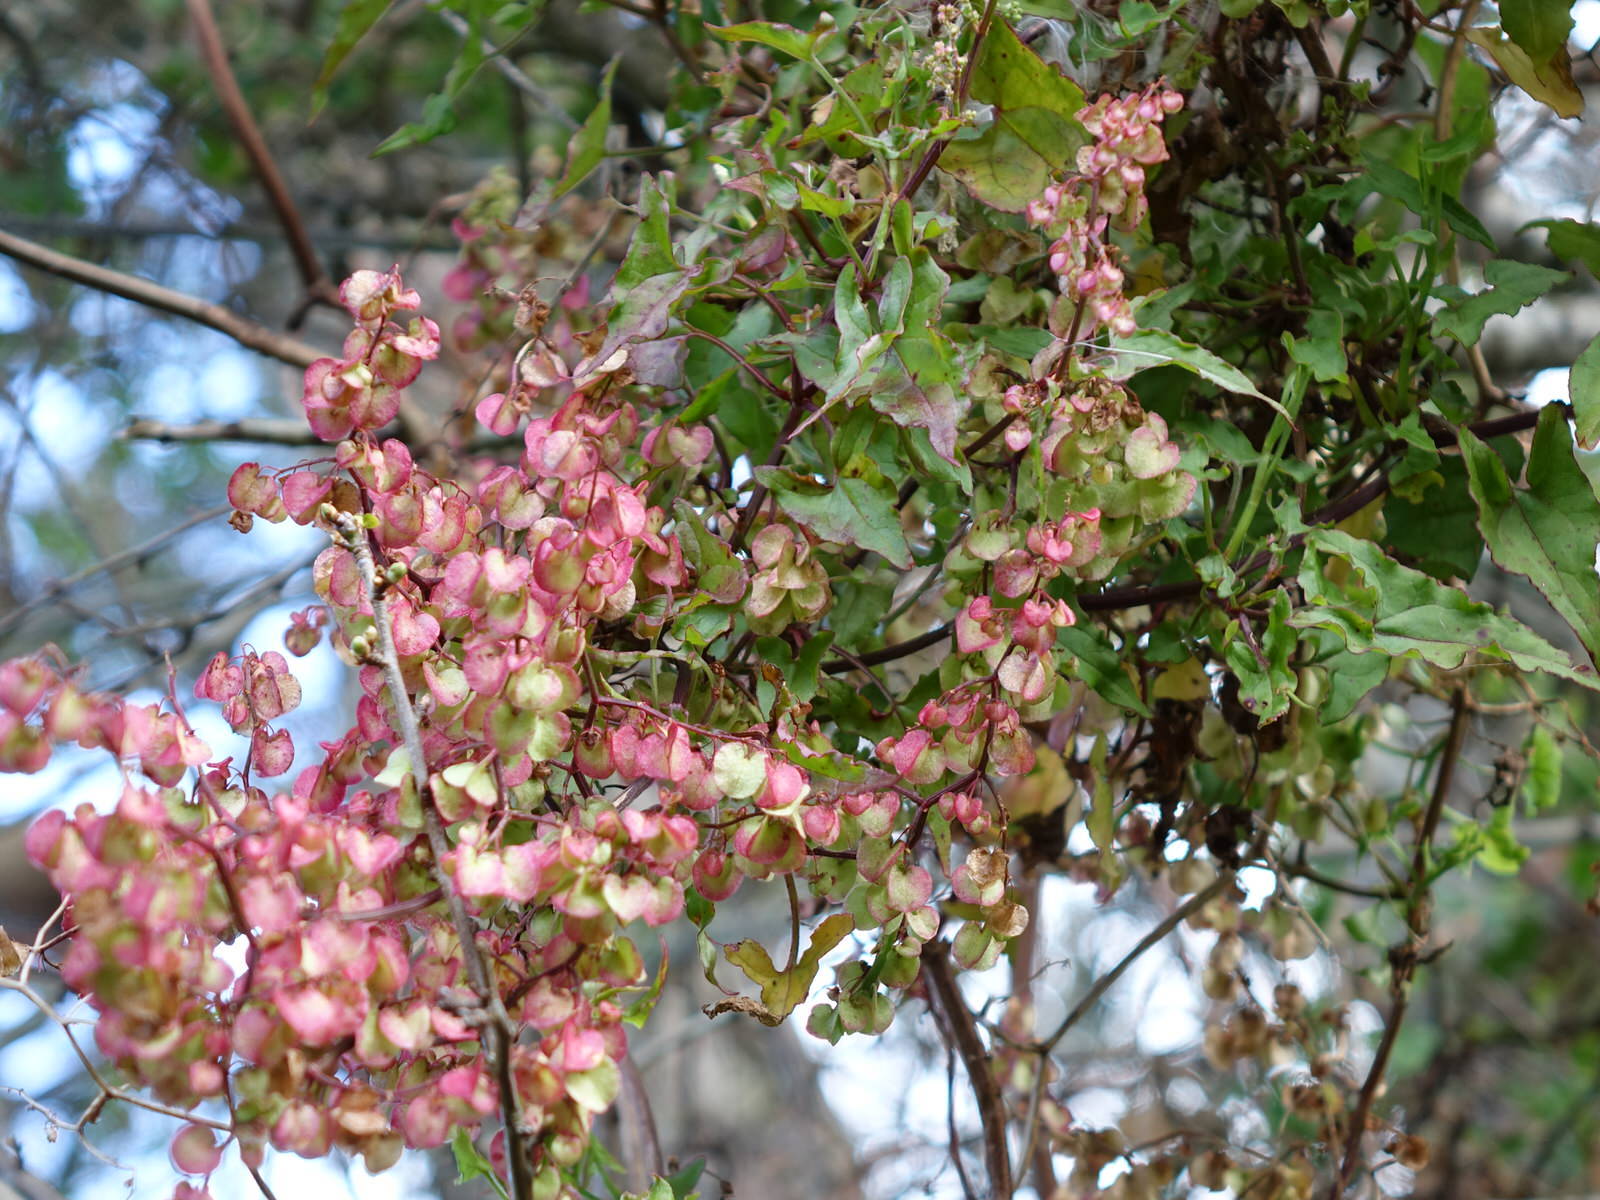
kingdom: Plantae
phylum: Tracheophyta
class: Magnoliopsida
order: Caryophyllales
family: Polygonaceae
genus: Rumex
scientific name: Rumex sagittatus
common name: Climbing dock
